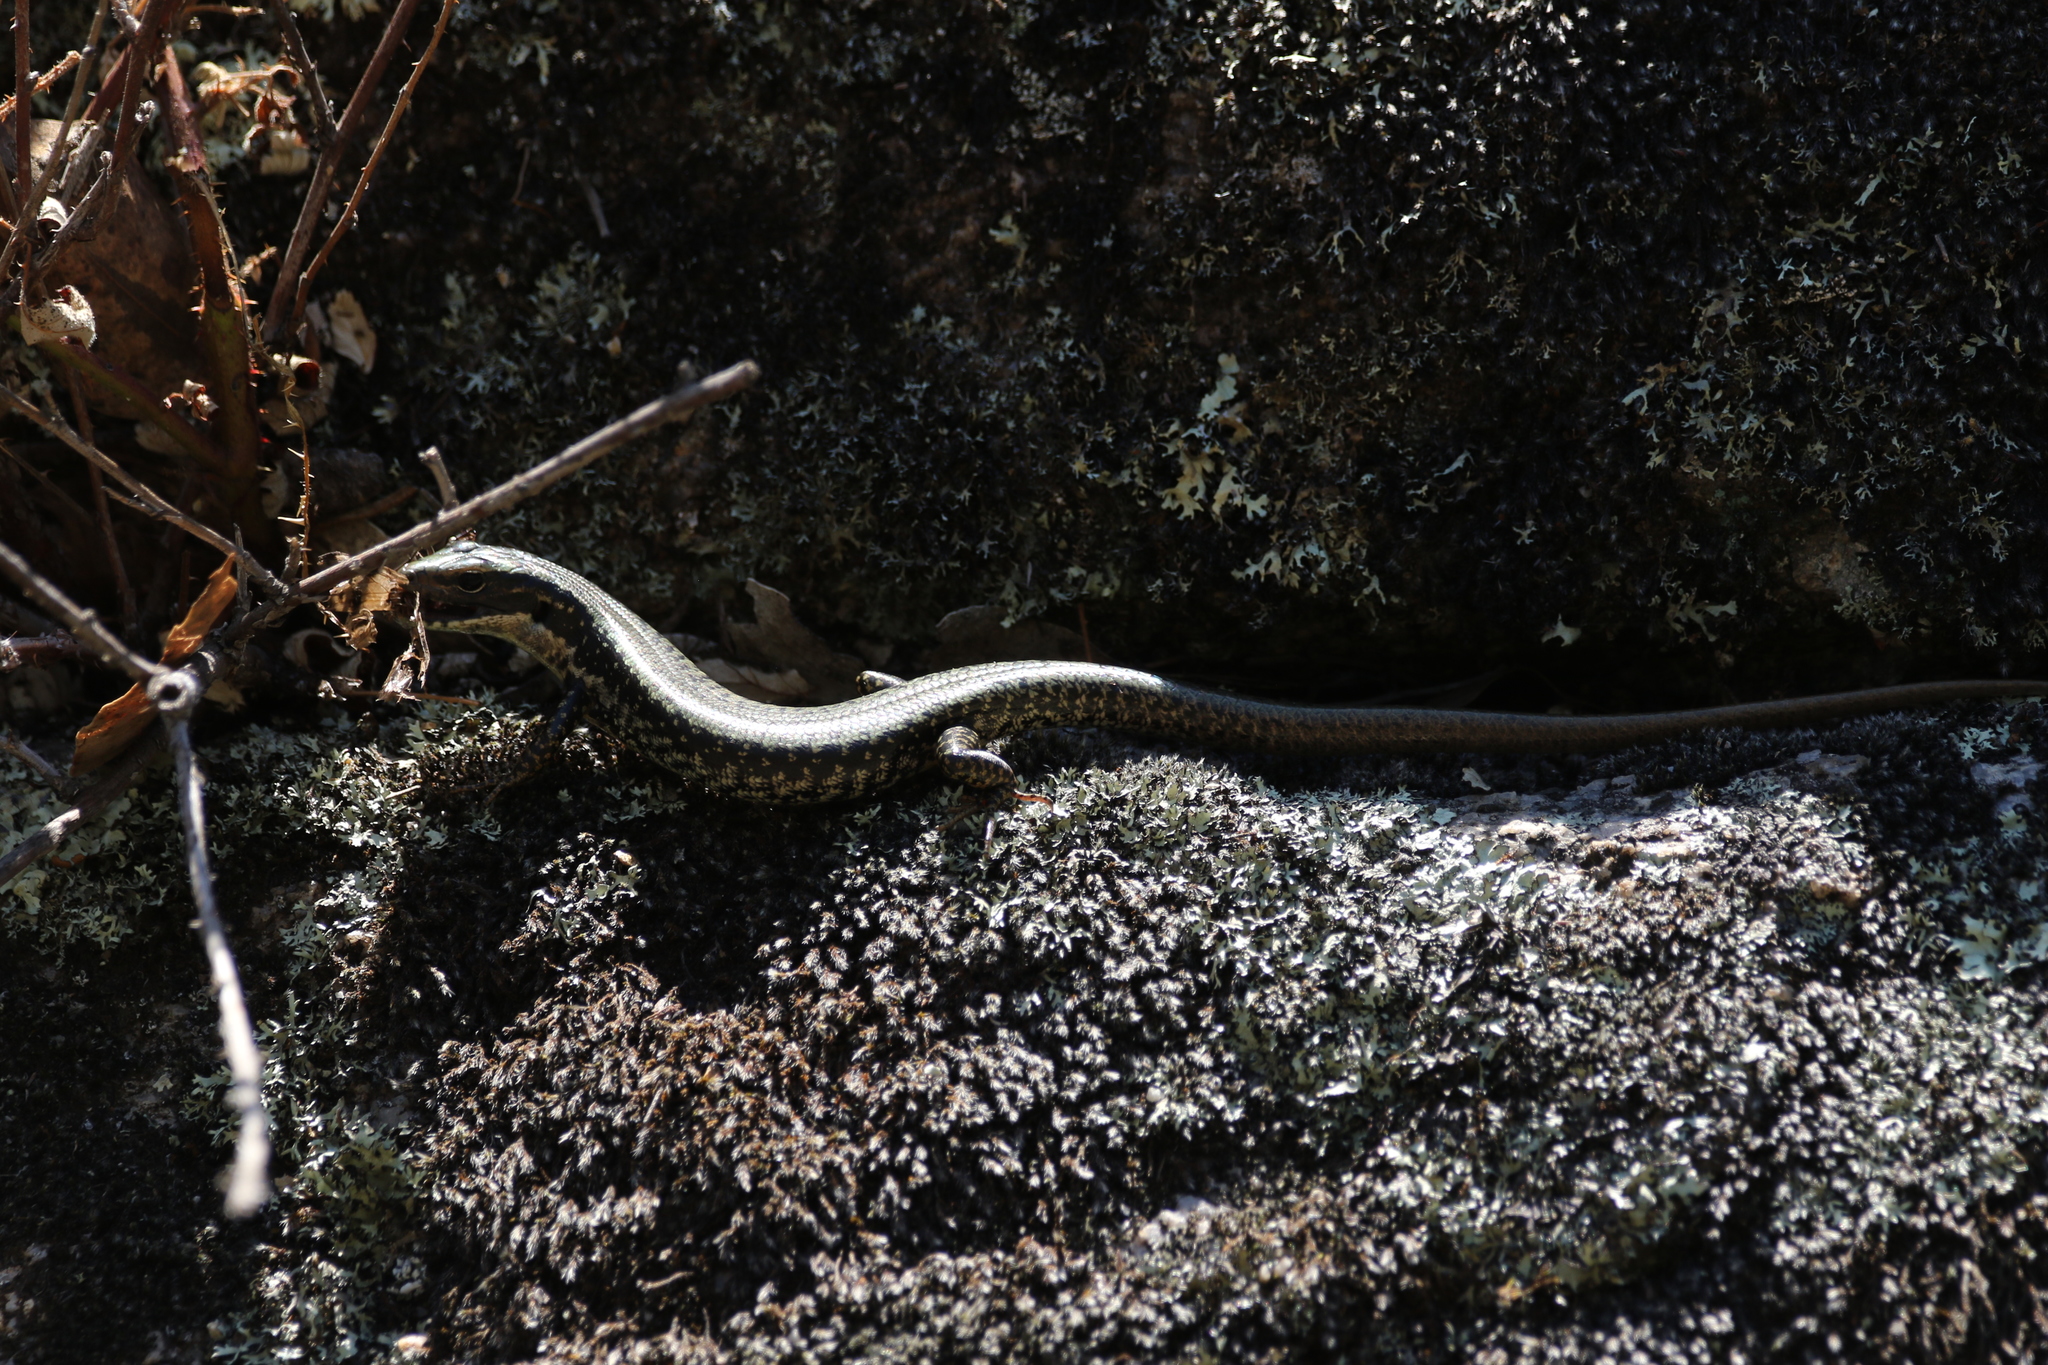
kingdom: Animalia
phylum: Chordata
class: Squamata
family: Scincidae
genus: Eulamprus
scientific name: Eulamprus heatwolei
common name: Warm-temperate water-skink
